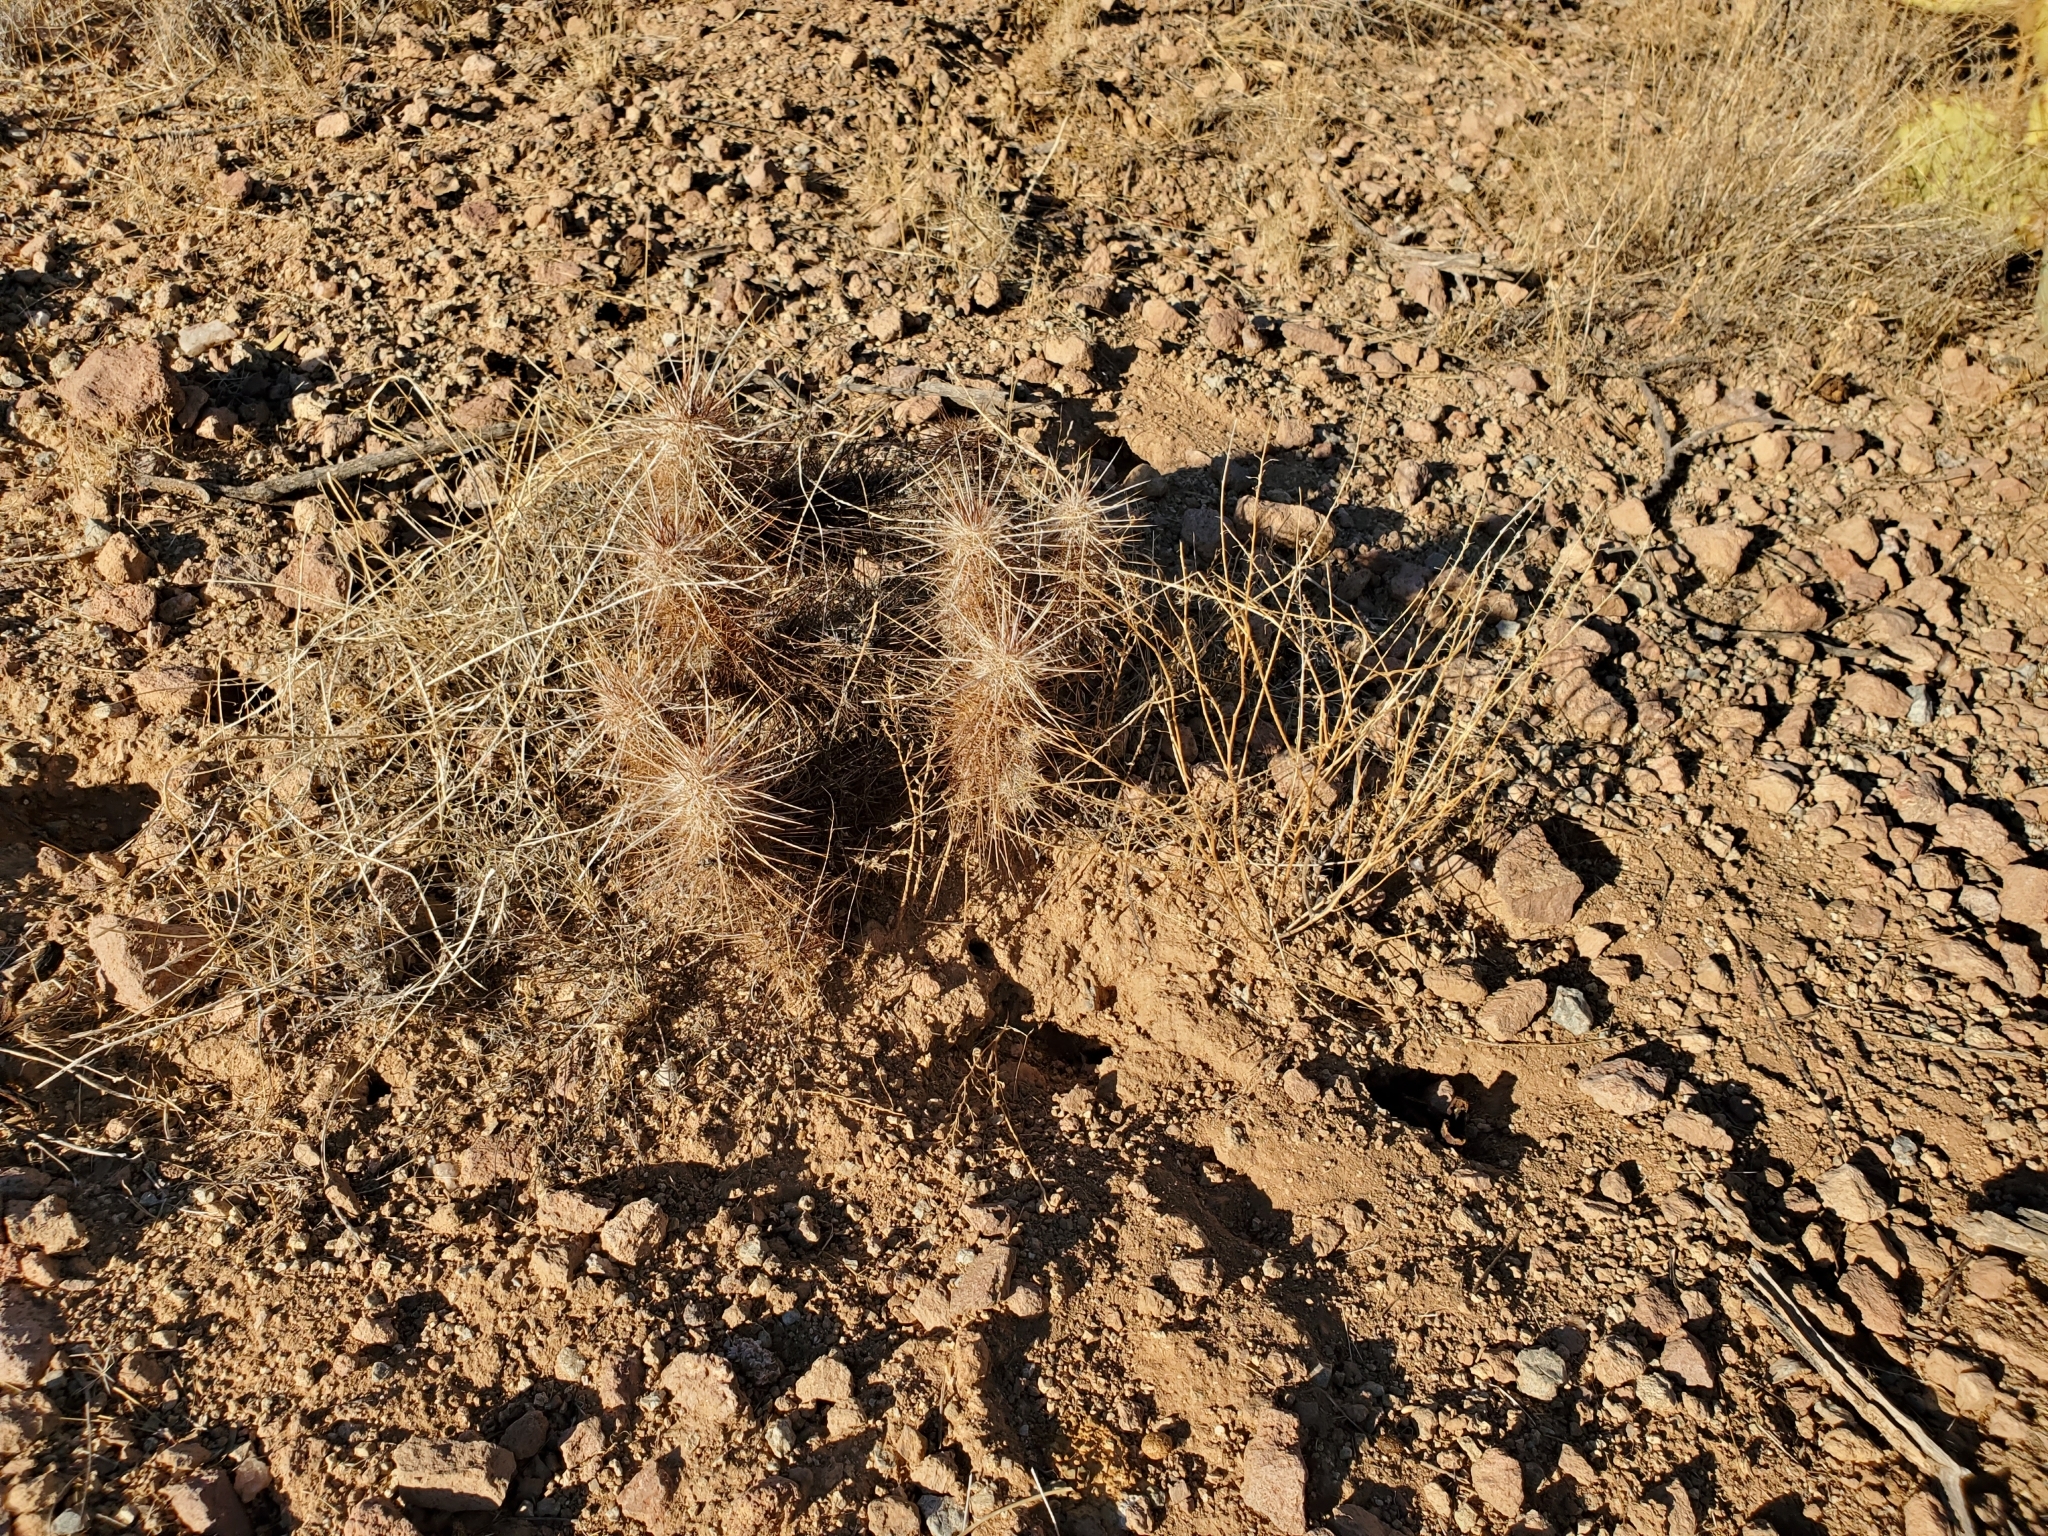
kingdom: Plantae
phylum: Tracheophyta
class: Magnoliopsida
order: Caryophyllales
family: Cactaceae
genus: Echinocereus
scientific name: Echinocereus engelmannii
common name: Engelmann's hedgehog cactus
